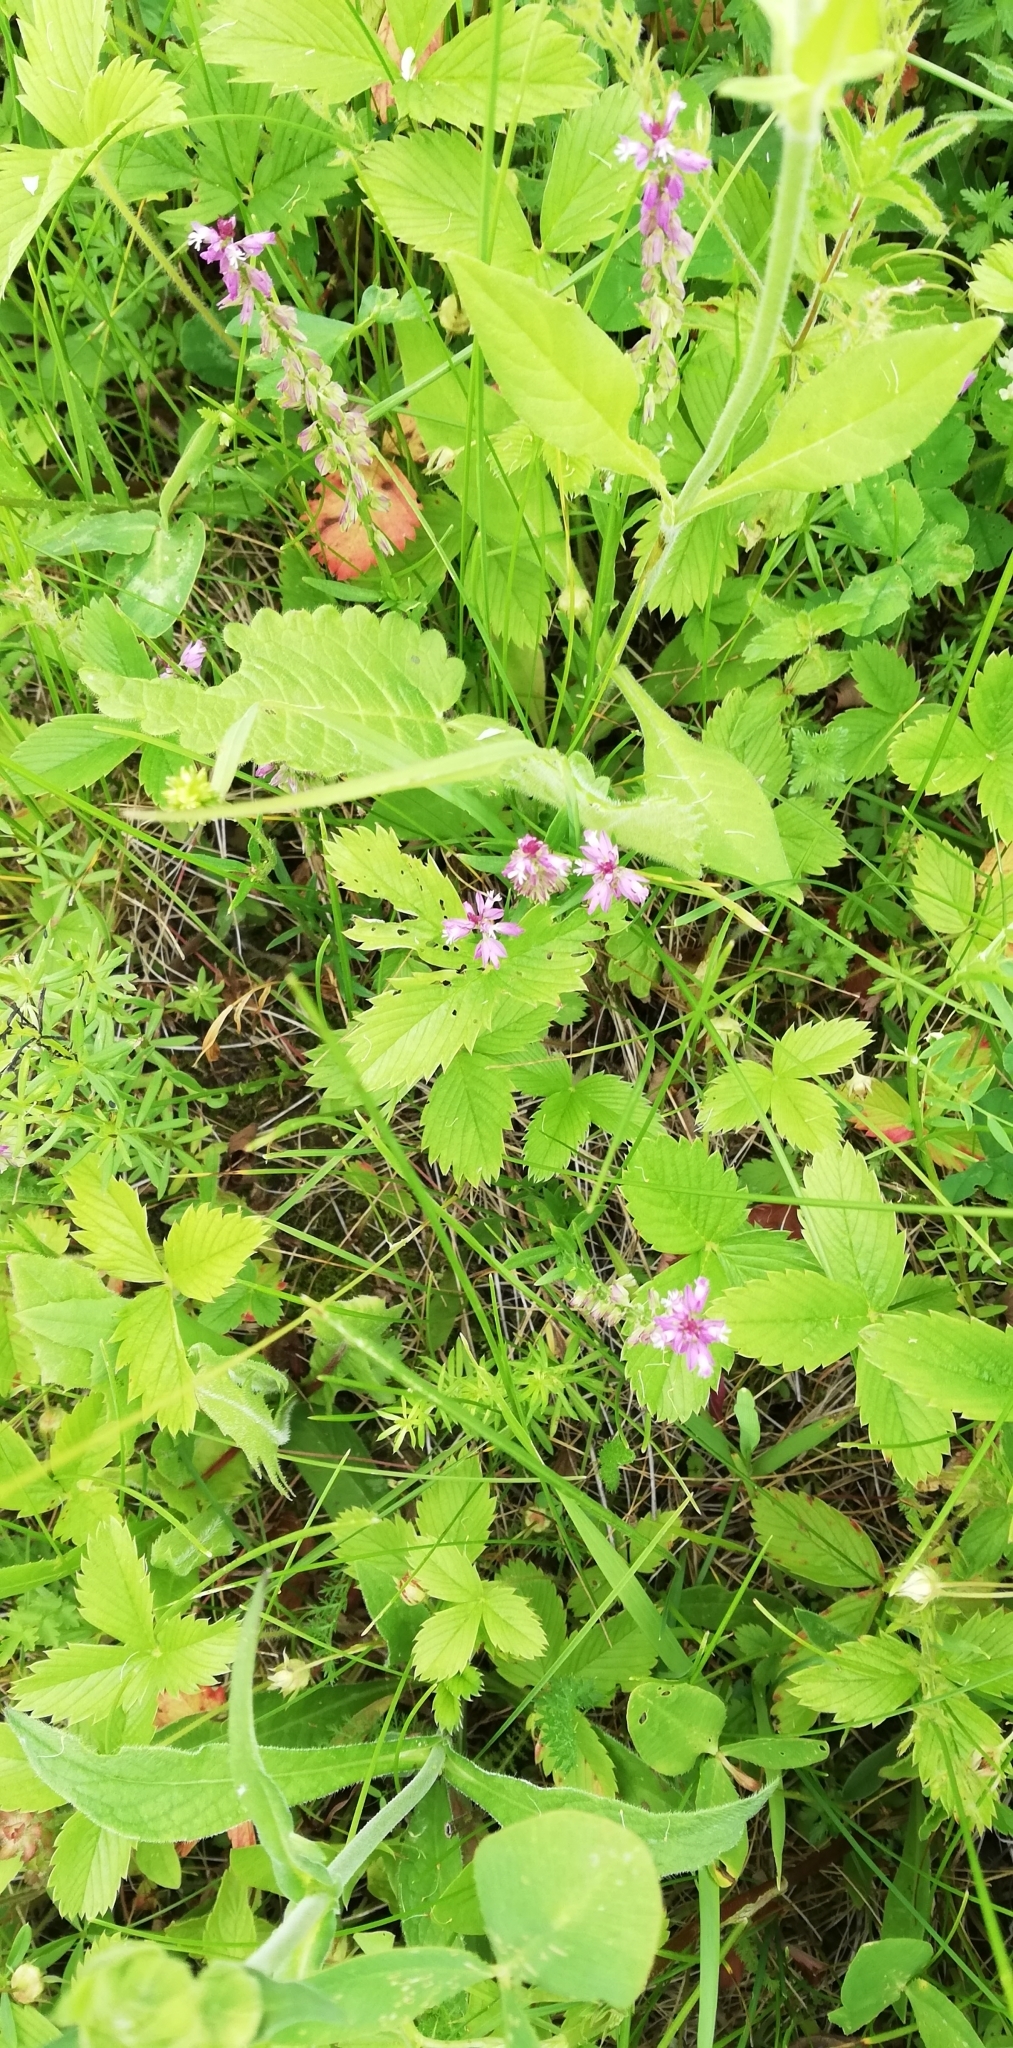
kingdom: Plantae
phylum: Tracheophyta
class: Magnoliopsida
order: Fabales
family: Polygalaceae
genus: Polygala
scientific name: Polygala comosa
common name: Tufted milkwort
